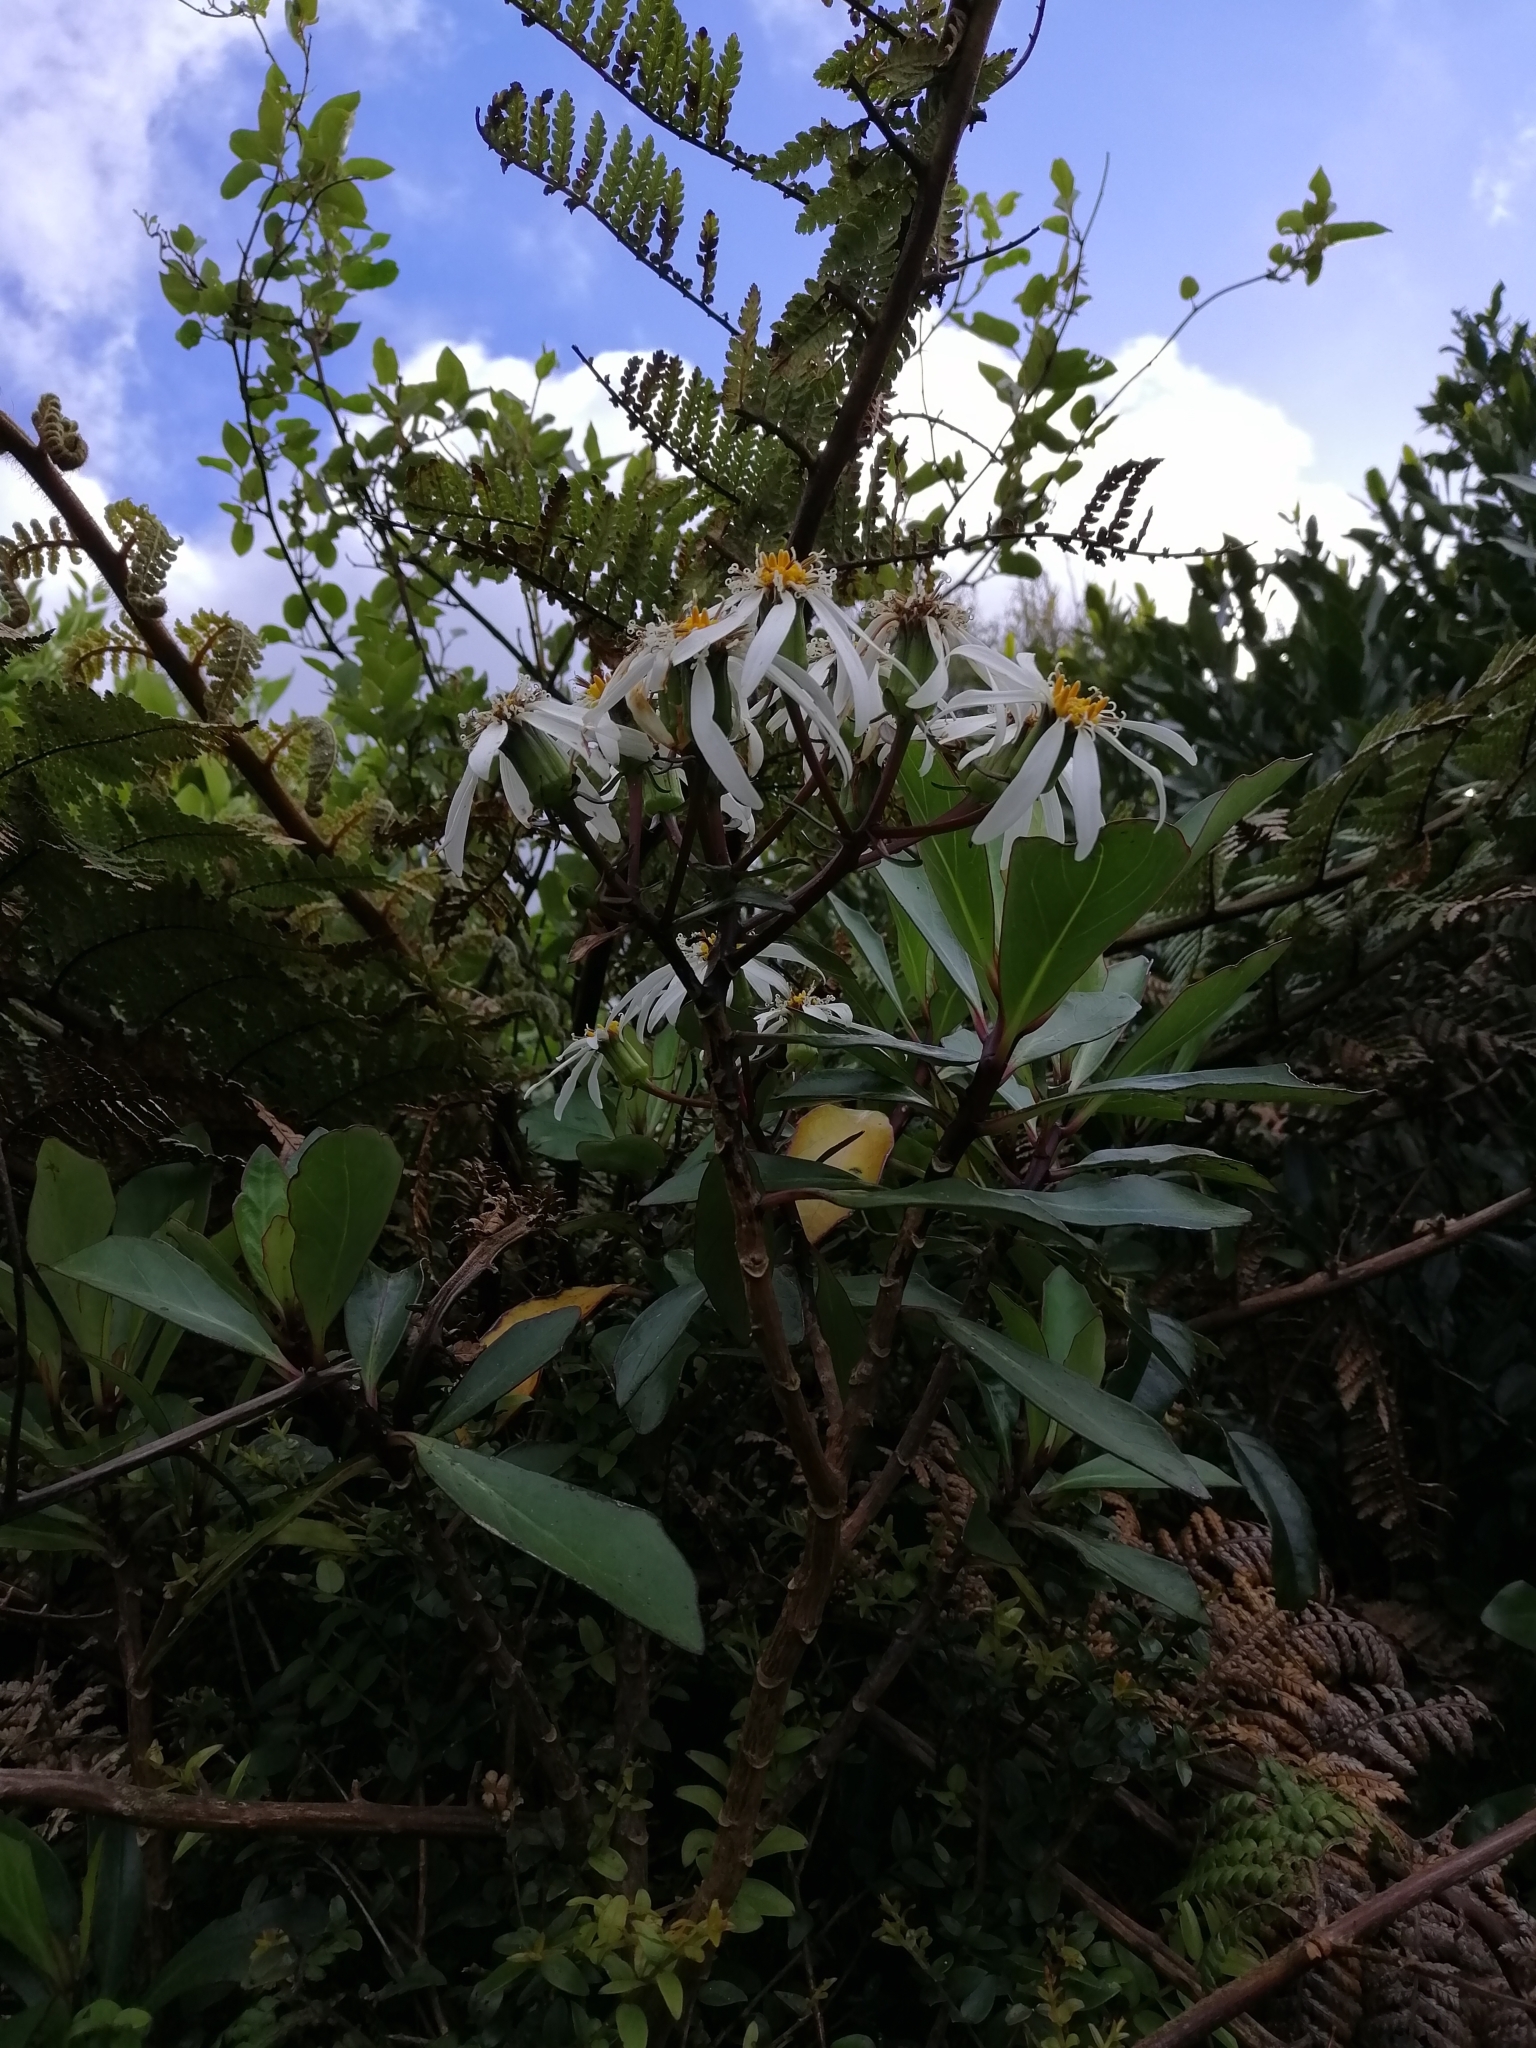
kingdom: Plantae
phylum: Tracheophyta
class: Magnoliopsida
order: Asterales
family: Asteraceae
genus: Brachyglottis
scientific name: Brachyglottis kirkii
